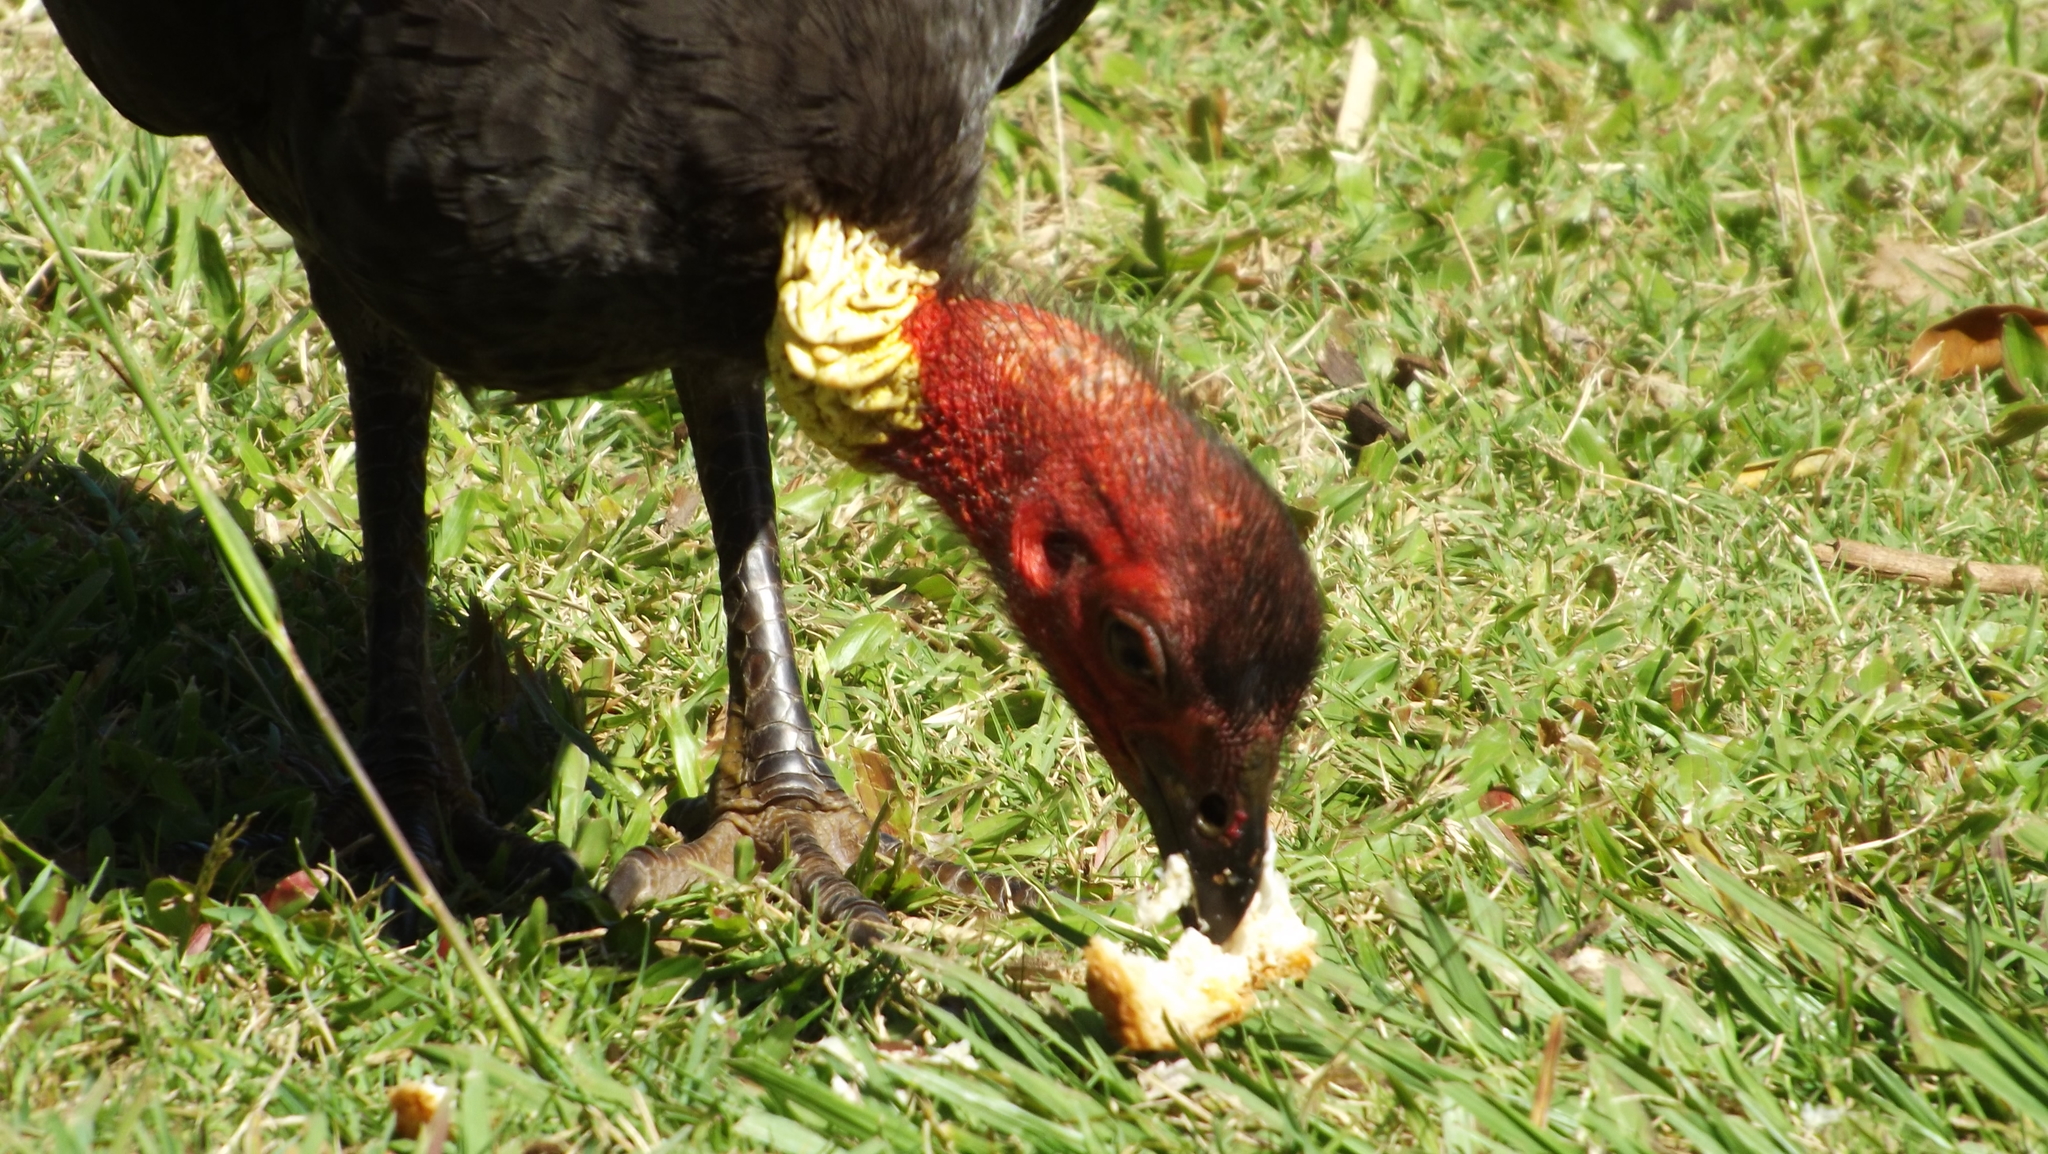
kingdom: Animalia
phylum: Chordata
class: Aves
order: Galliformes
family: Megapodiidae
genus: Alectura
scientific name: Alectura lathami
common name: Australian brushturkey
